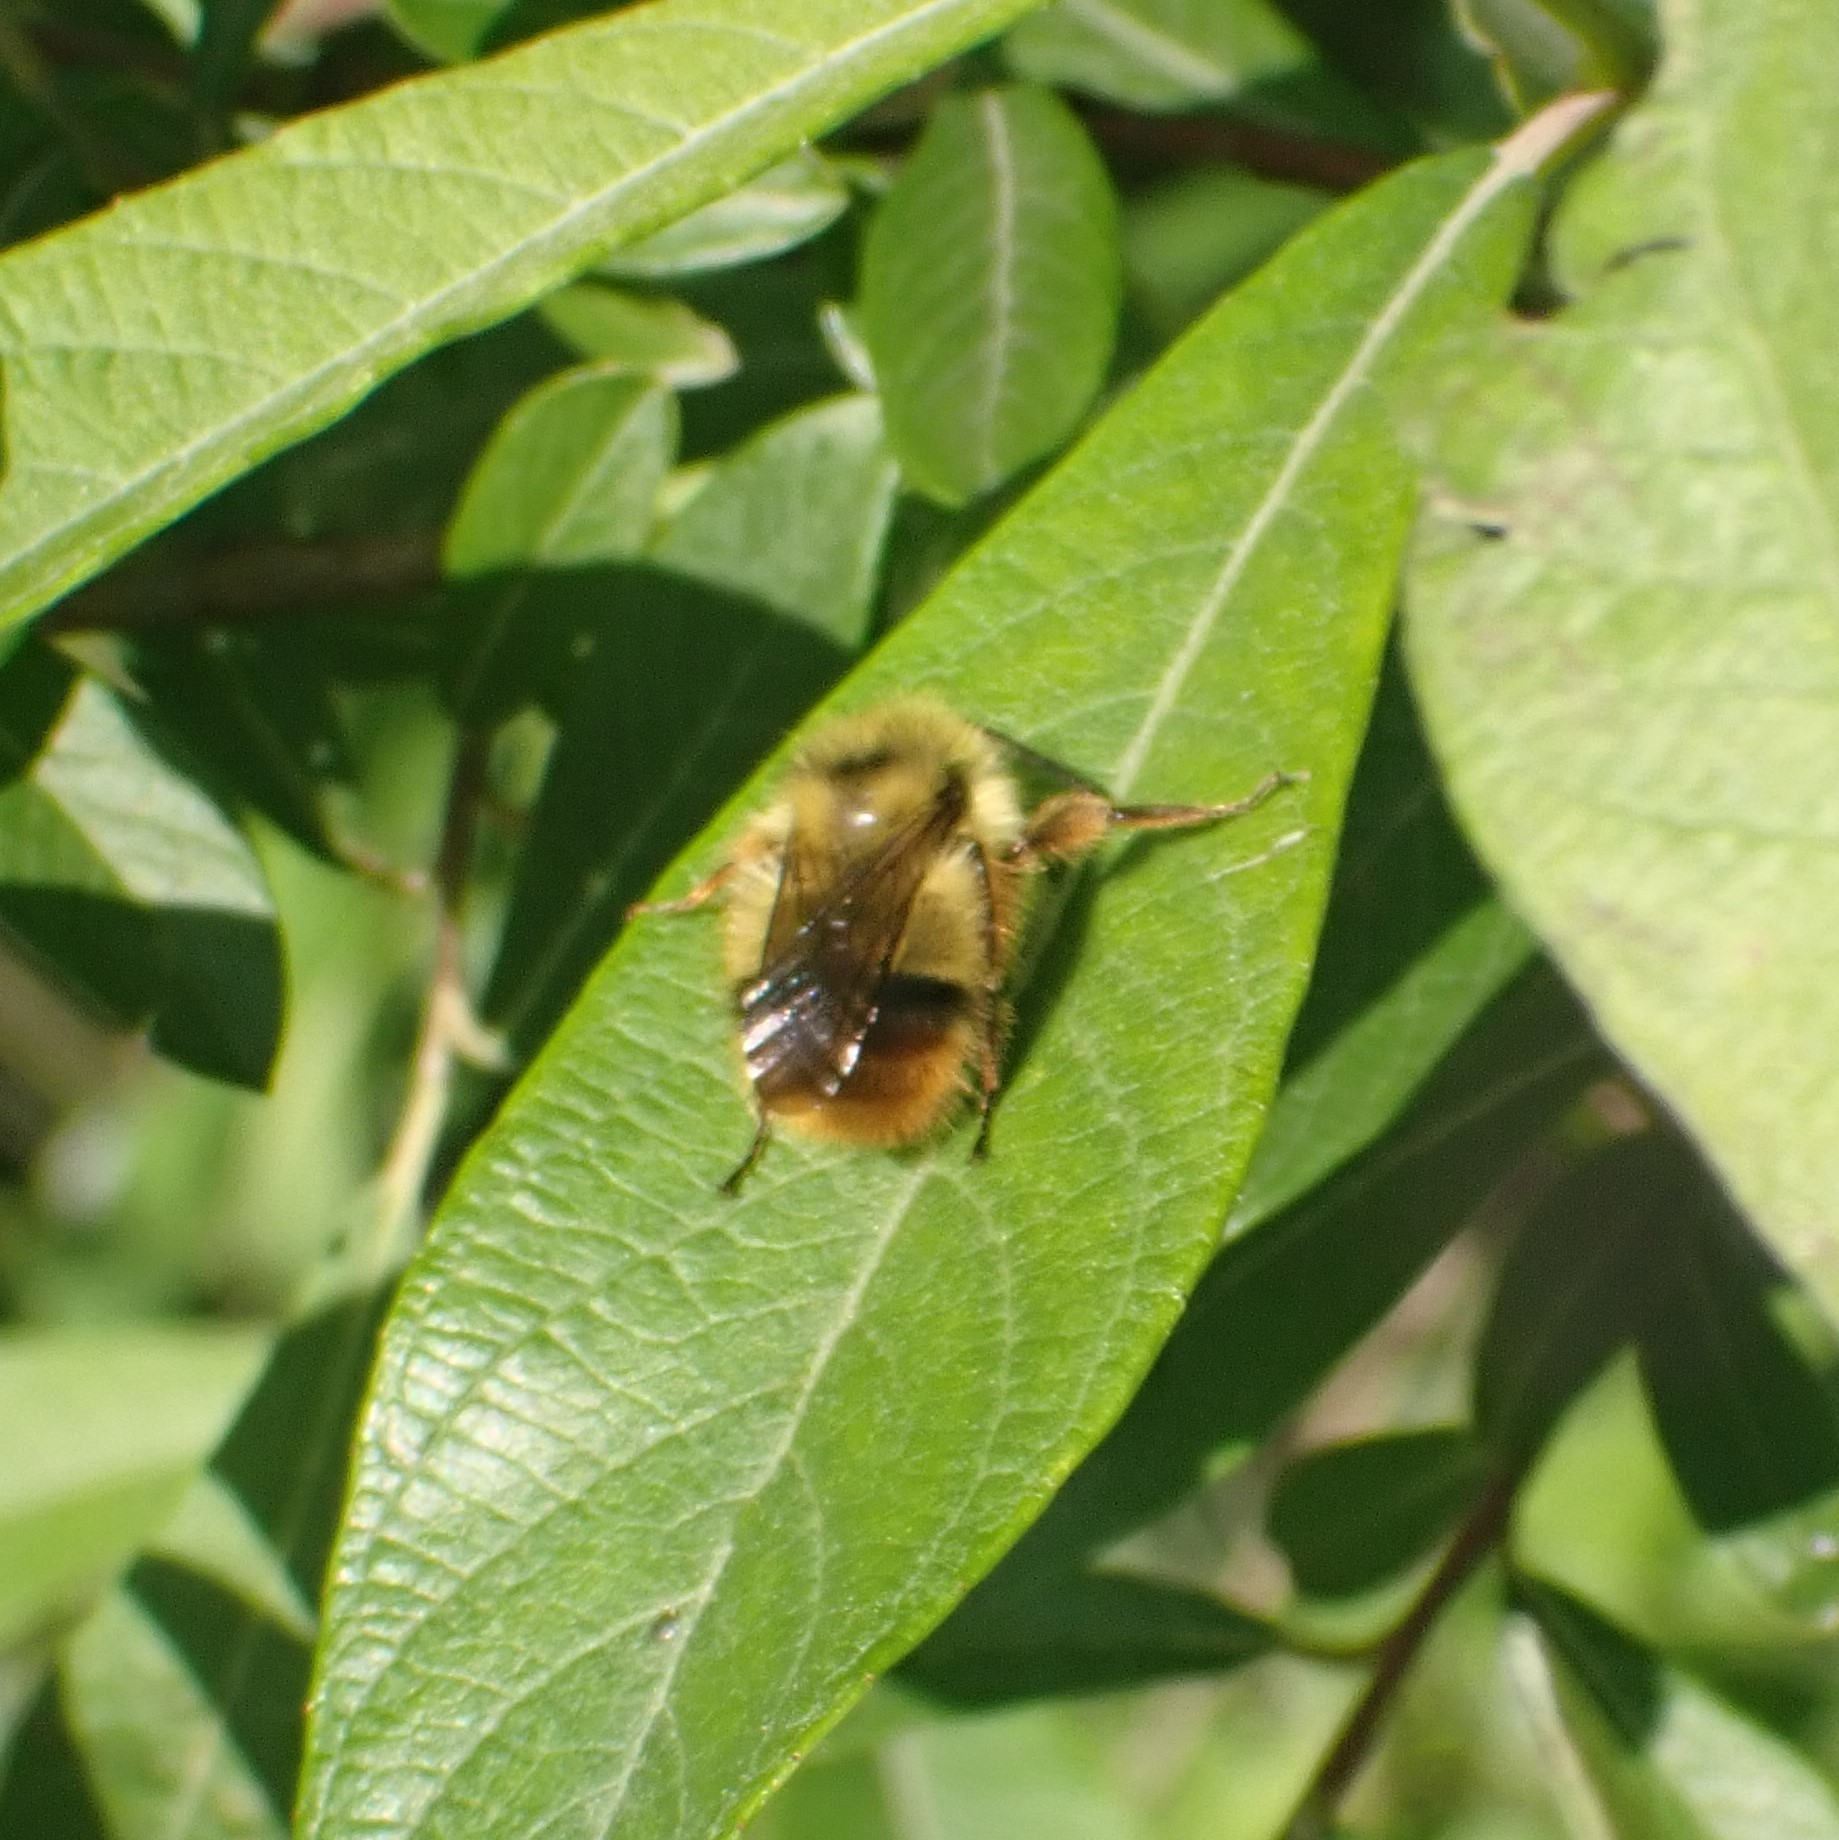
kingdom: Animalia
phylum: Arthropoda
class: Insecta
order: Hymenoptera
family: Apidae
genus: Bombus
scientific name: Bombus mixtus
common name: Fuzzy-horned bumble bee
